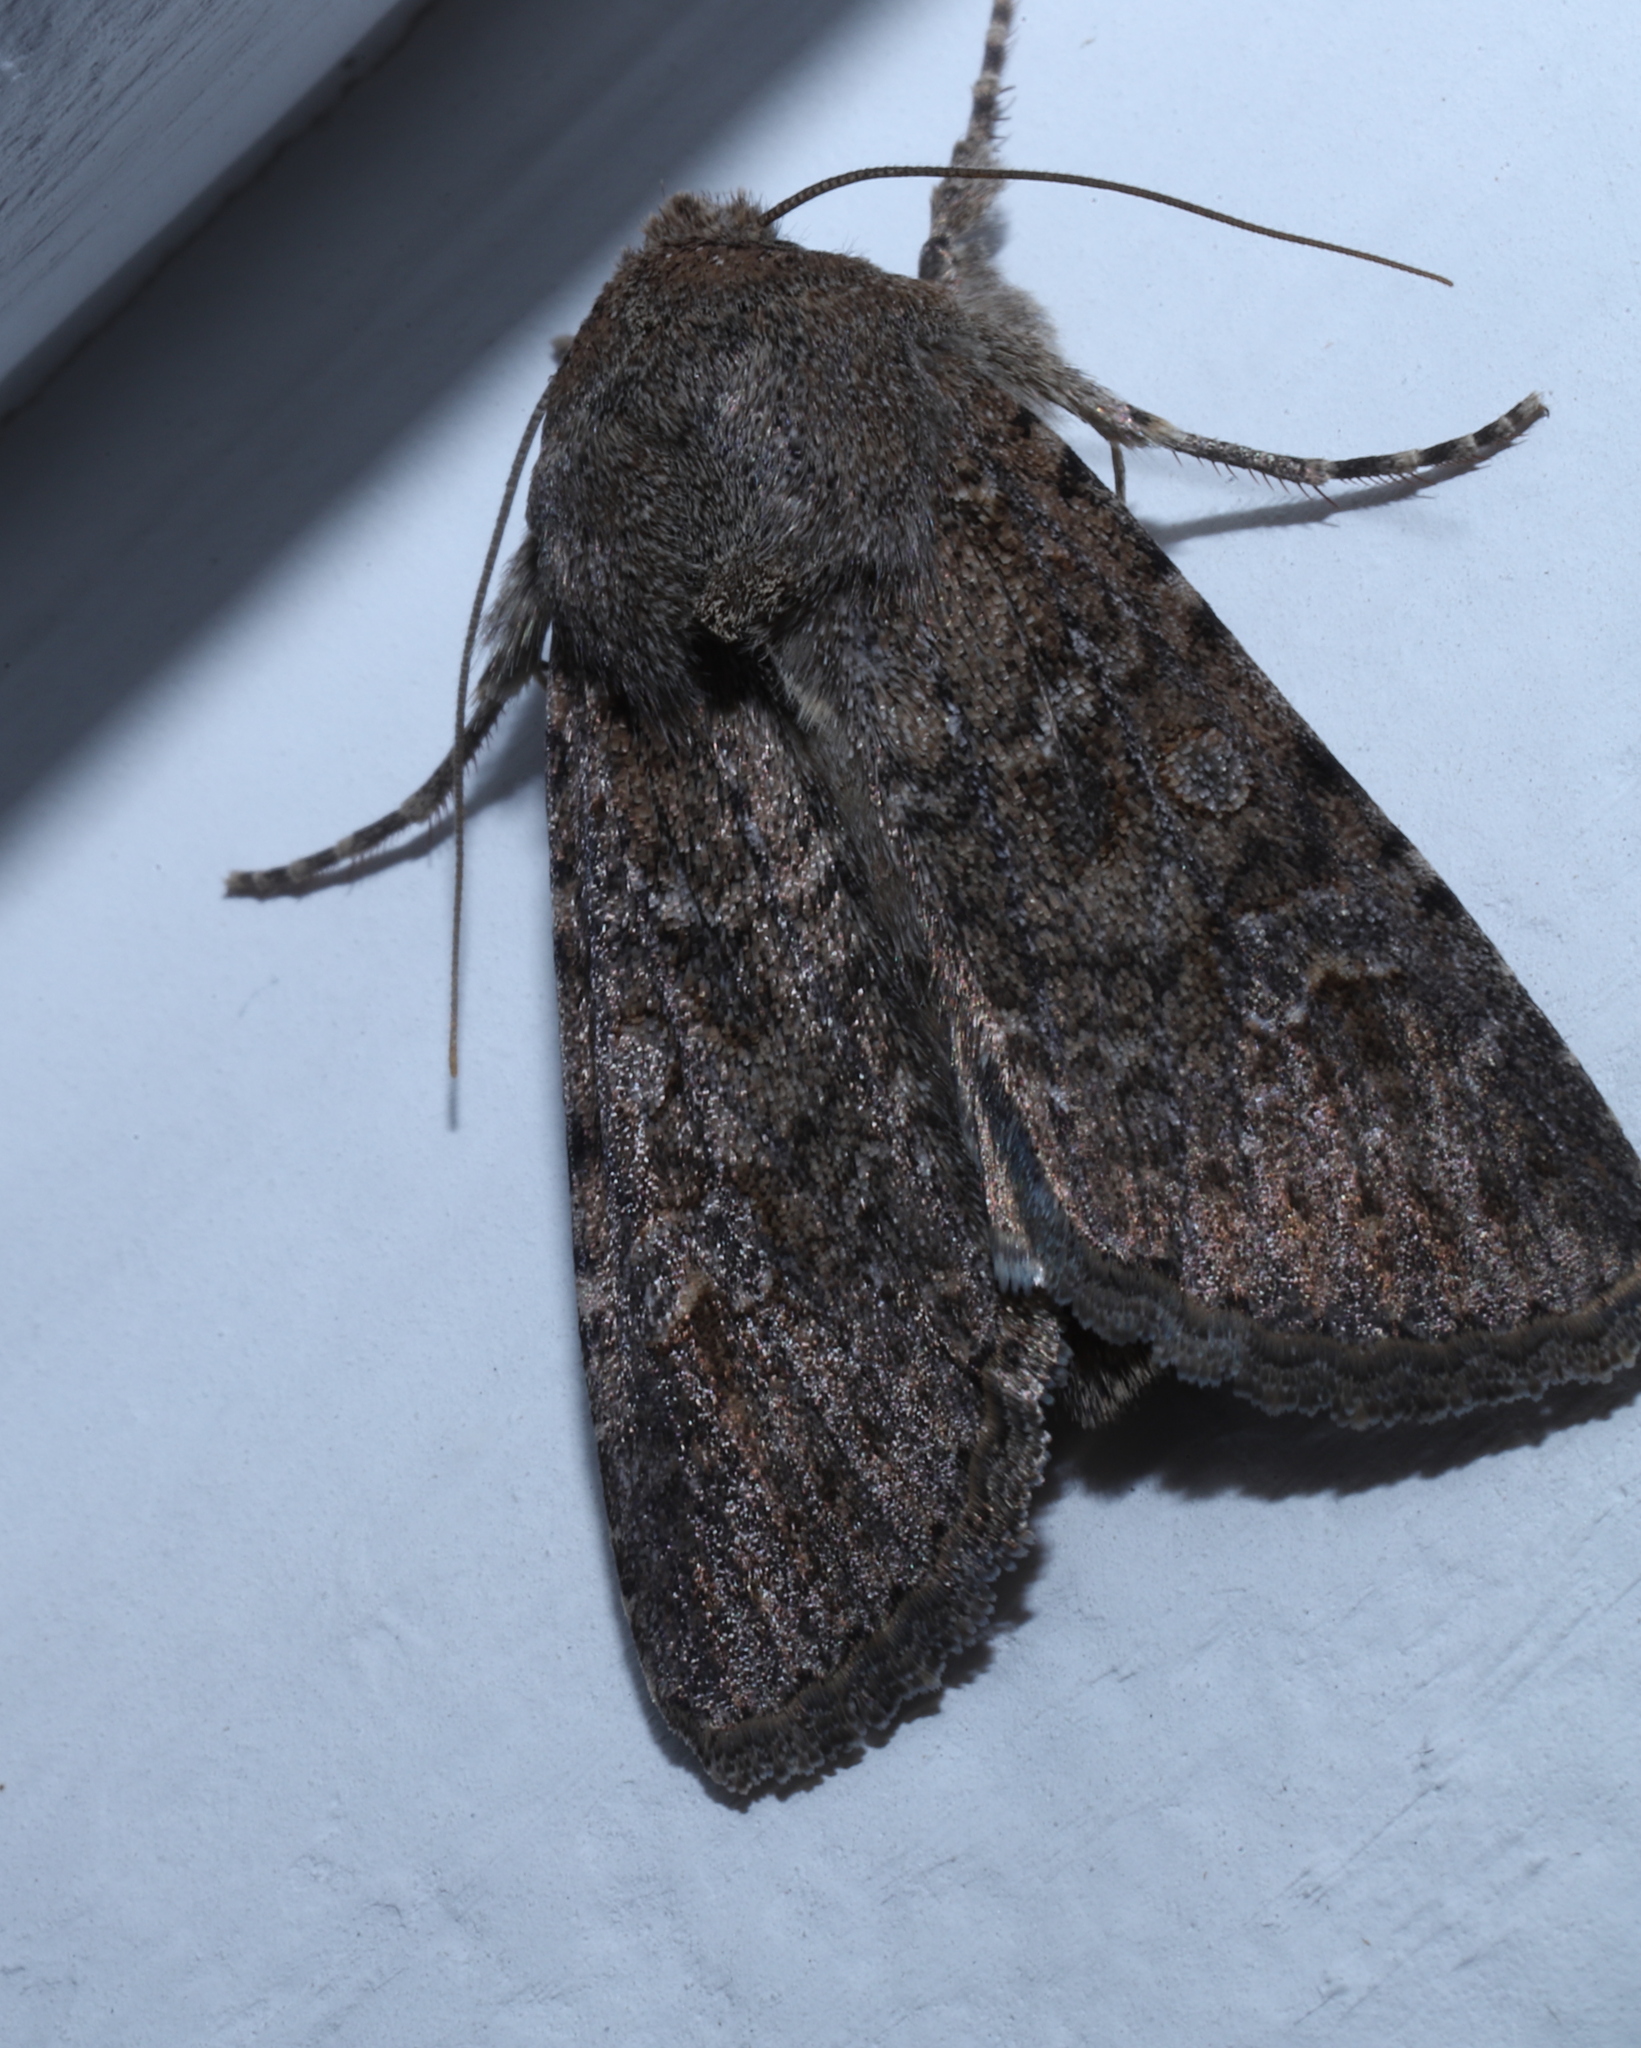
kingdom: Animalia
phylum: Arthropoda
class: Insecta
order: Lepidoptera
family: Noctuidae
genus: Peridroma
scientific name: Peridroma saucia
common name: Pearly underwing
